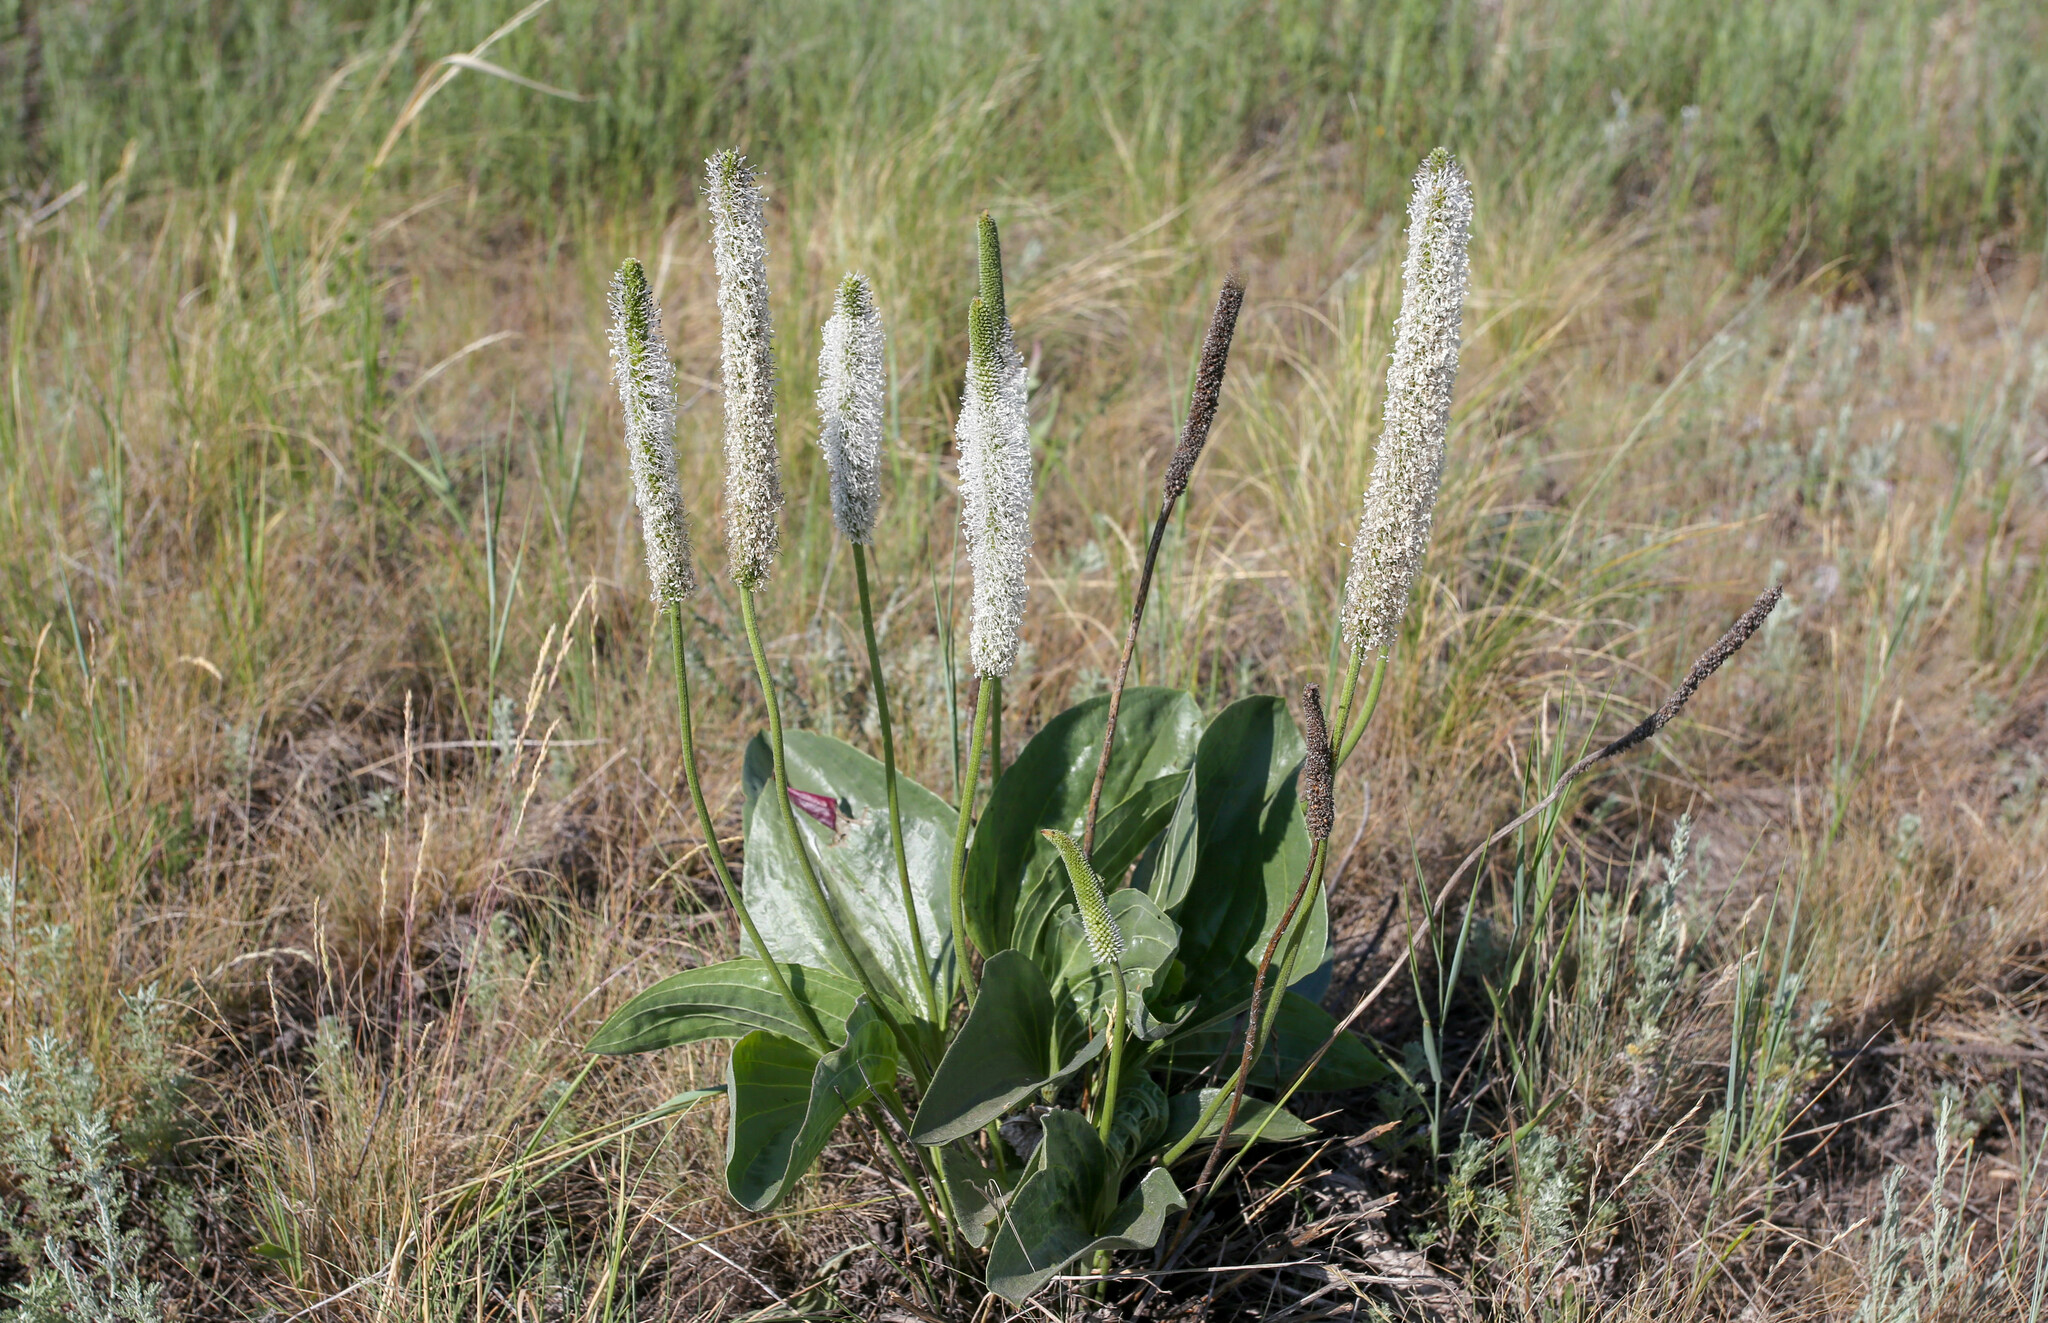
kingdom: Plantae
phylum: Tracheophyta
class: Magnoliopsida
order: Lamiales
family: Plantaginaceae
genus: Plantago
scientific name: Plantago maxima
